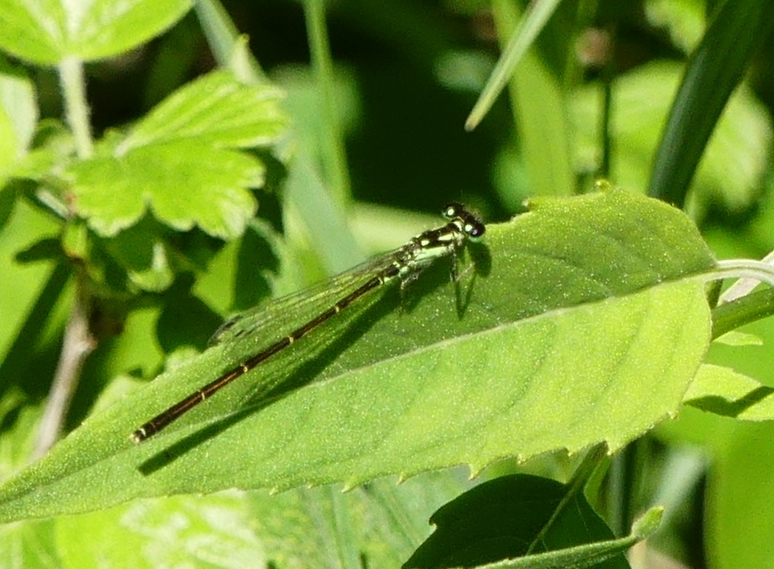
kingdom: Animalia
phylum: Arthropoda
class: Insecta
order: Odonata
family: Coenagrionidae
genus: Ischnura
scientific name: Ischnura posita
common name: Fragile forktail
